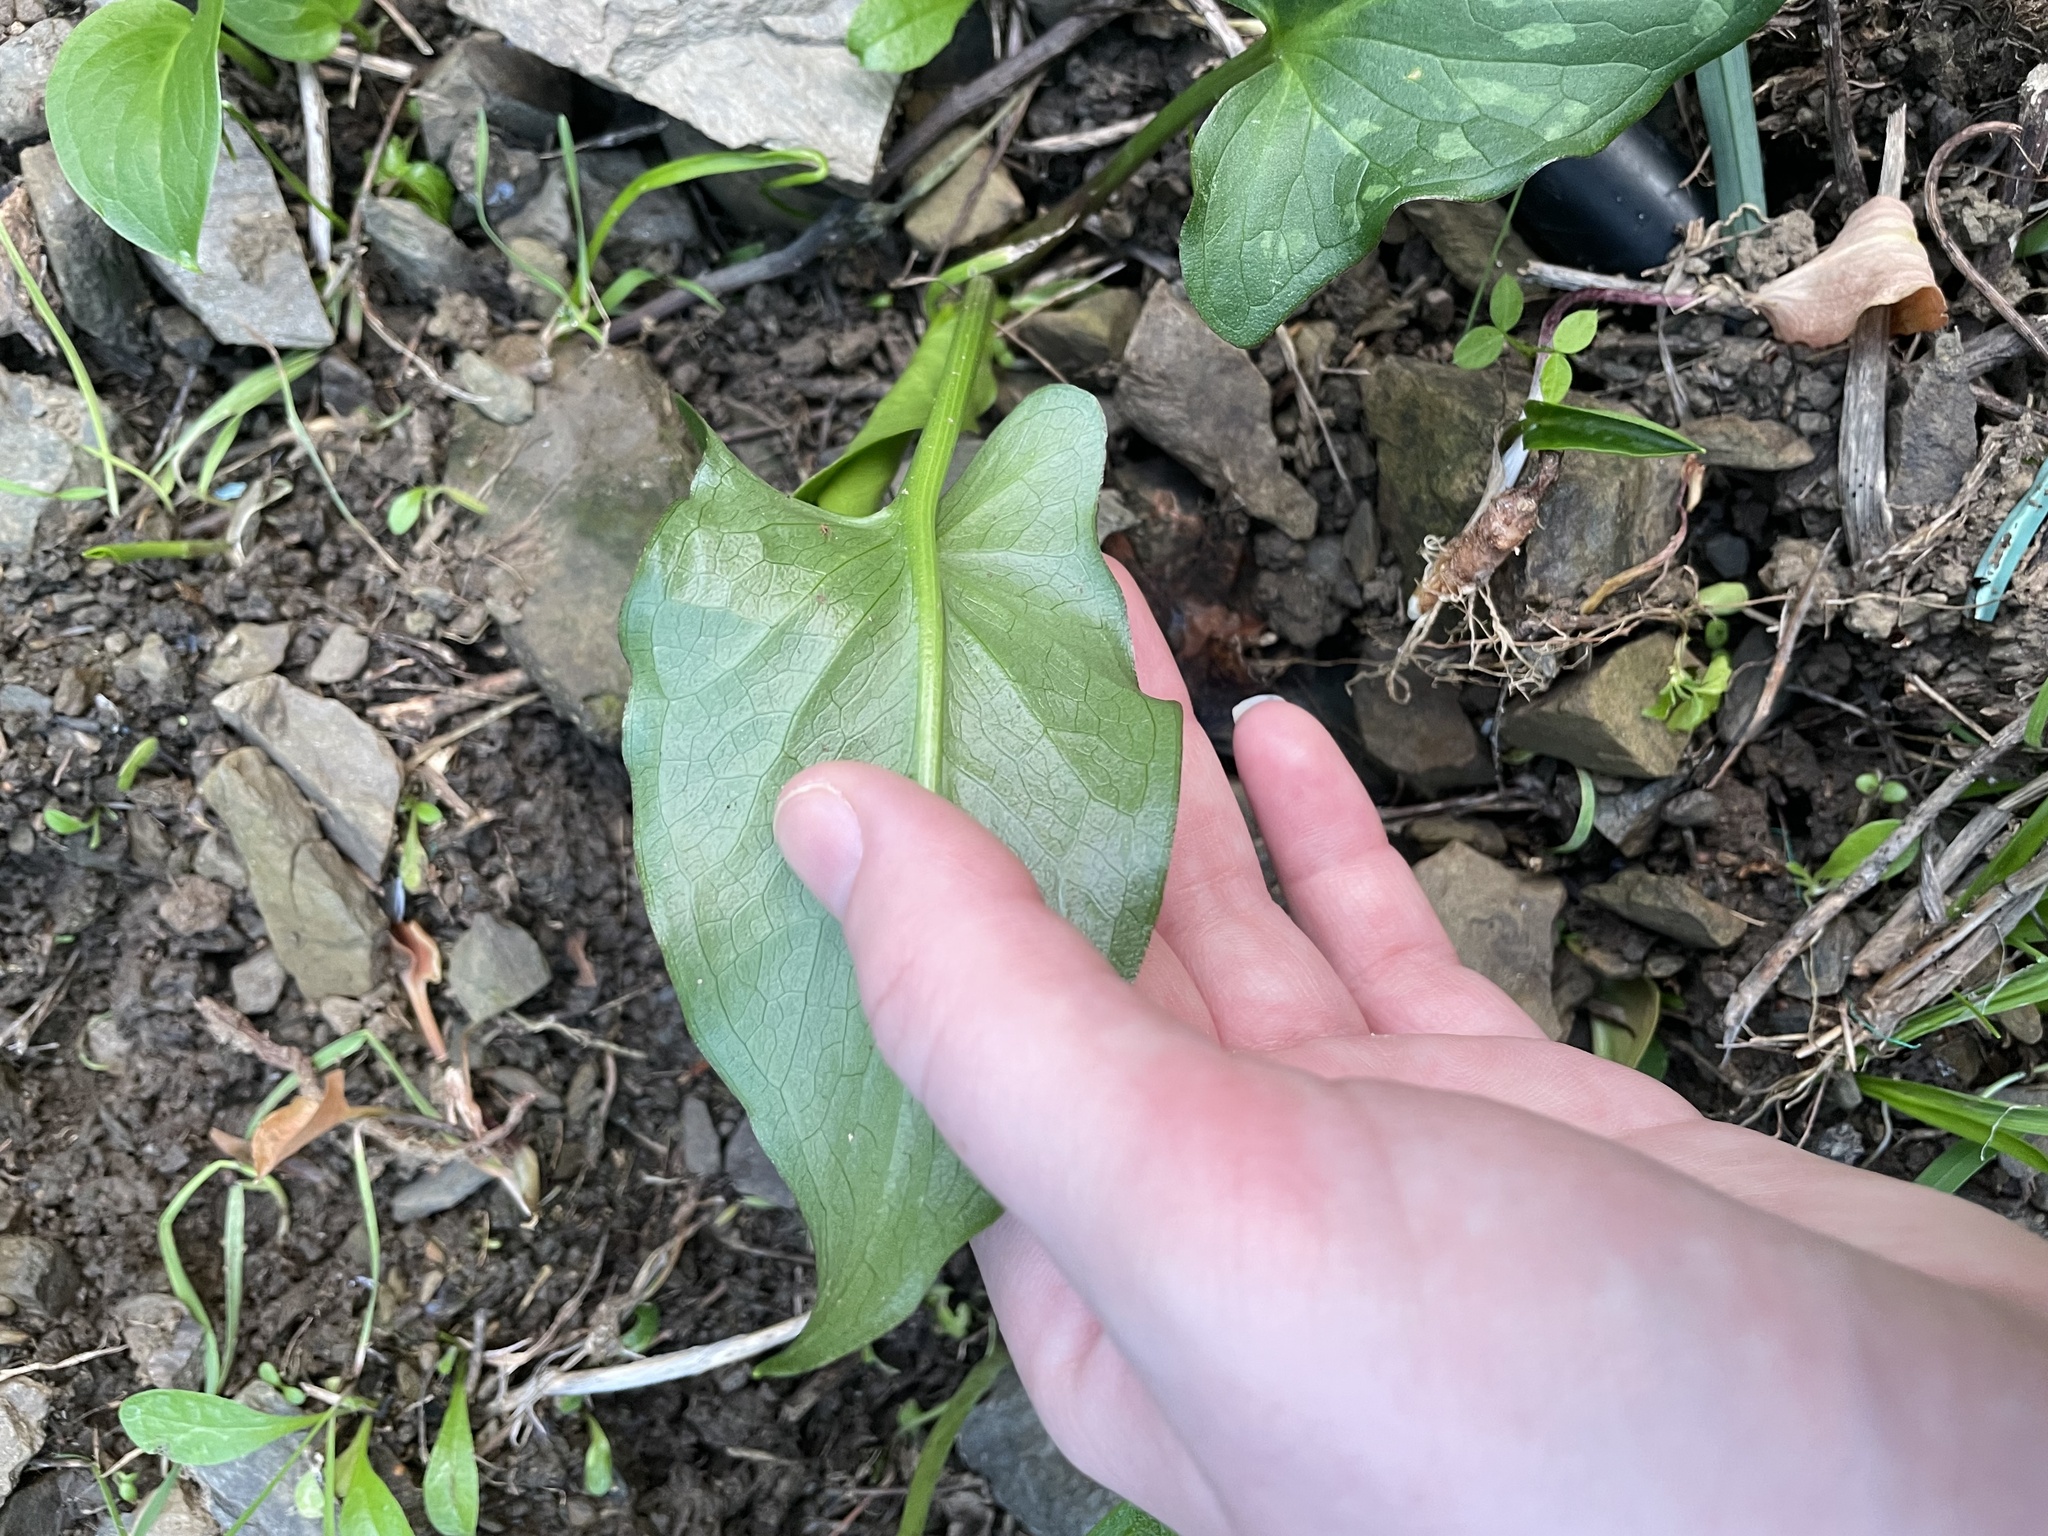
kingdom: Plantae
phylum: Tracheophyta
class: Liliopsida
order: Alismatales
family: Araceae
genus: Arum
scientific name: Arum italicum
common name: Italian lords-and-ladies
